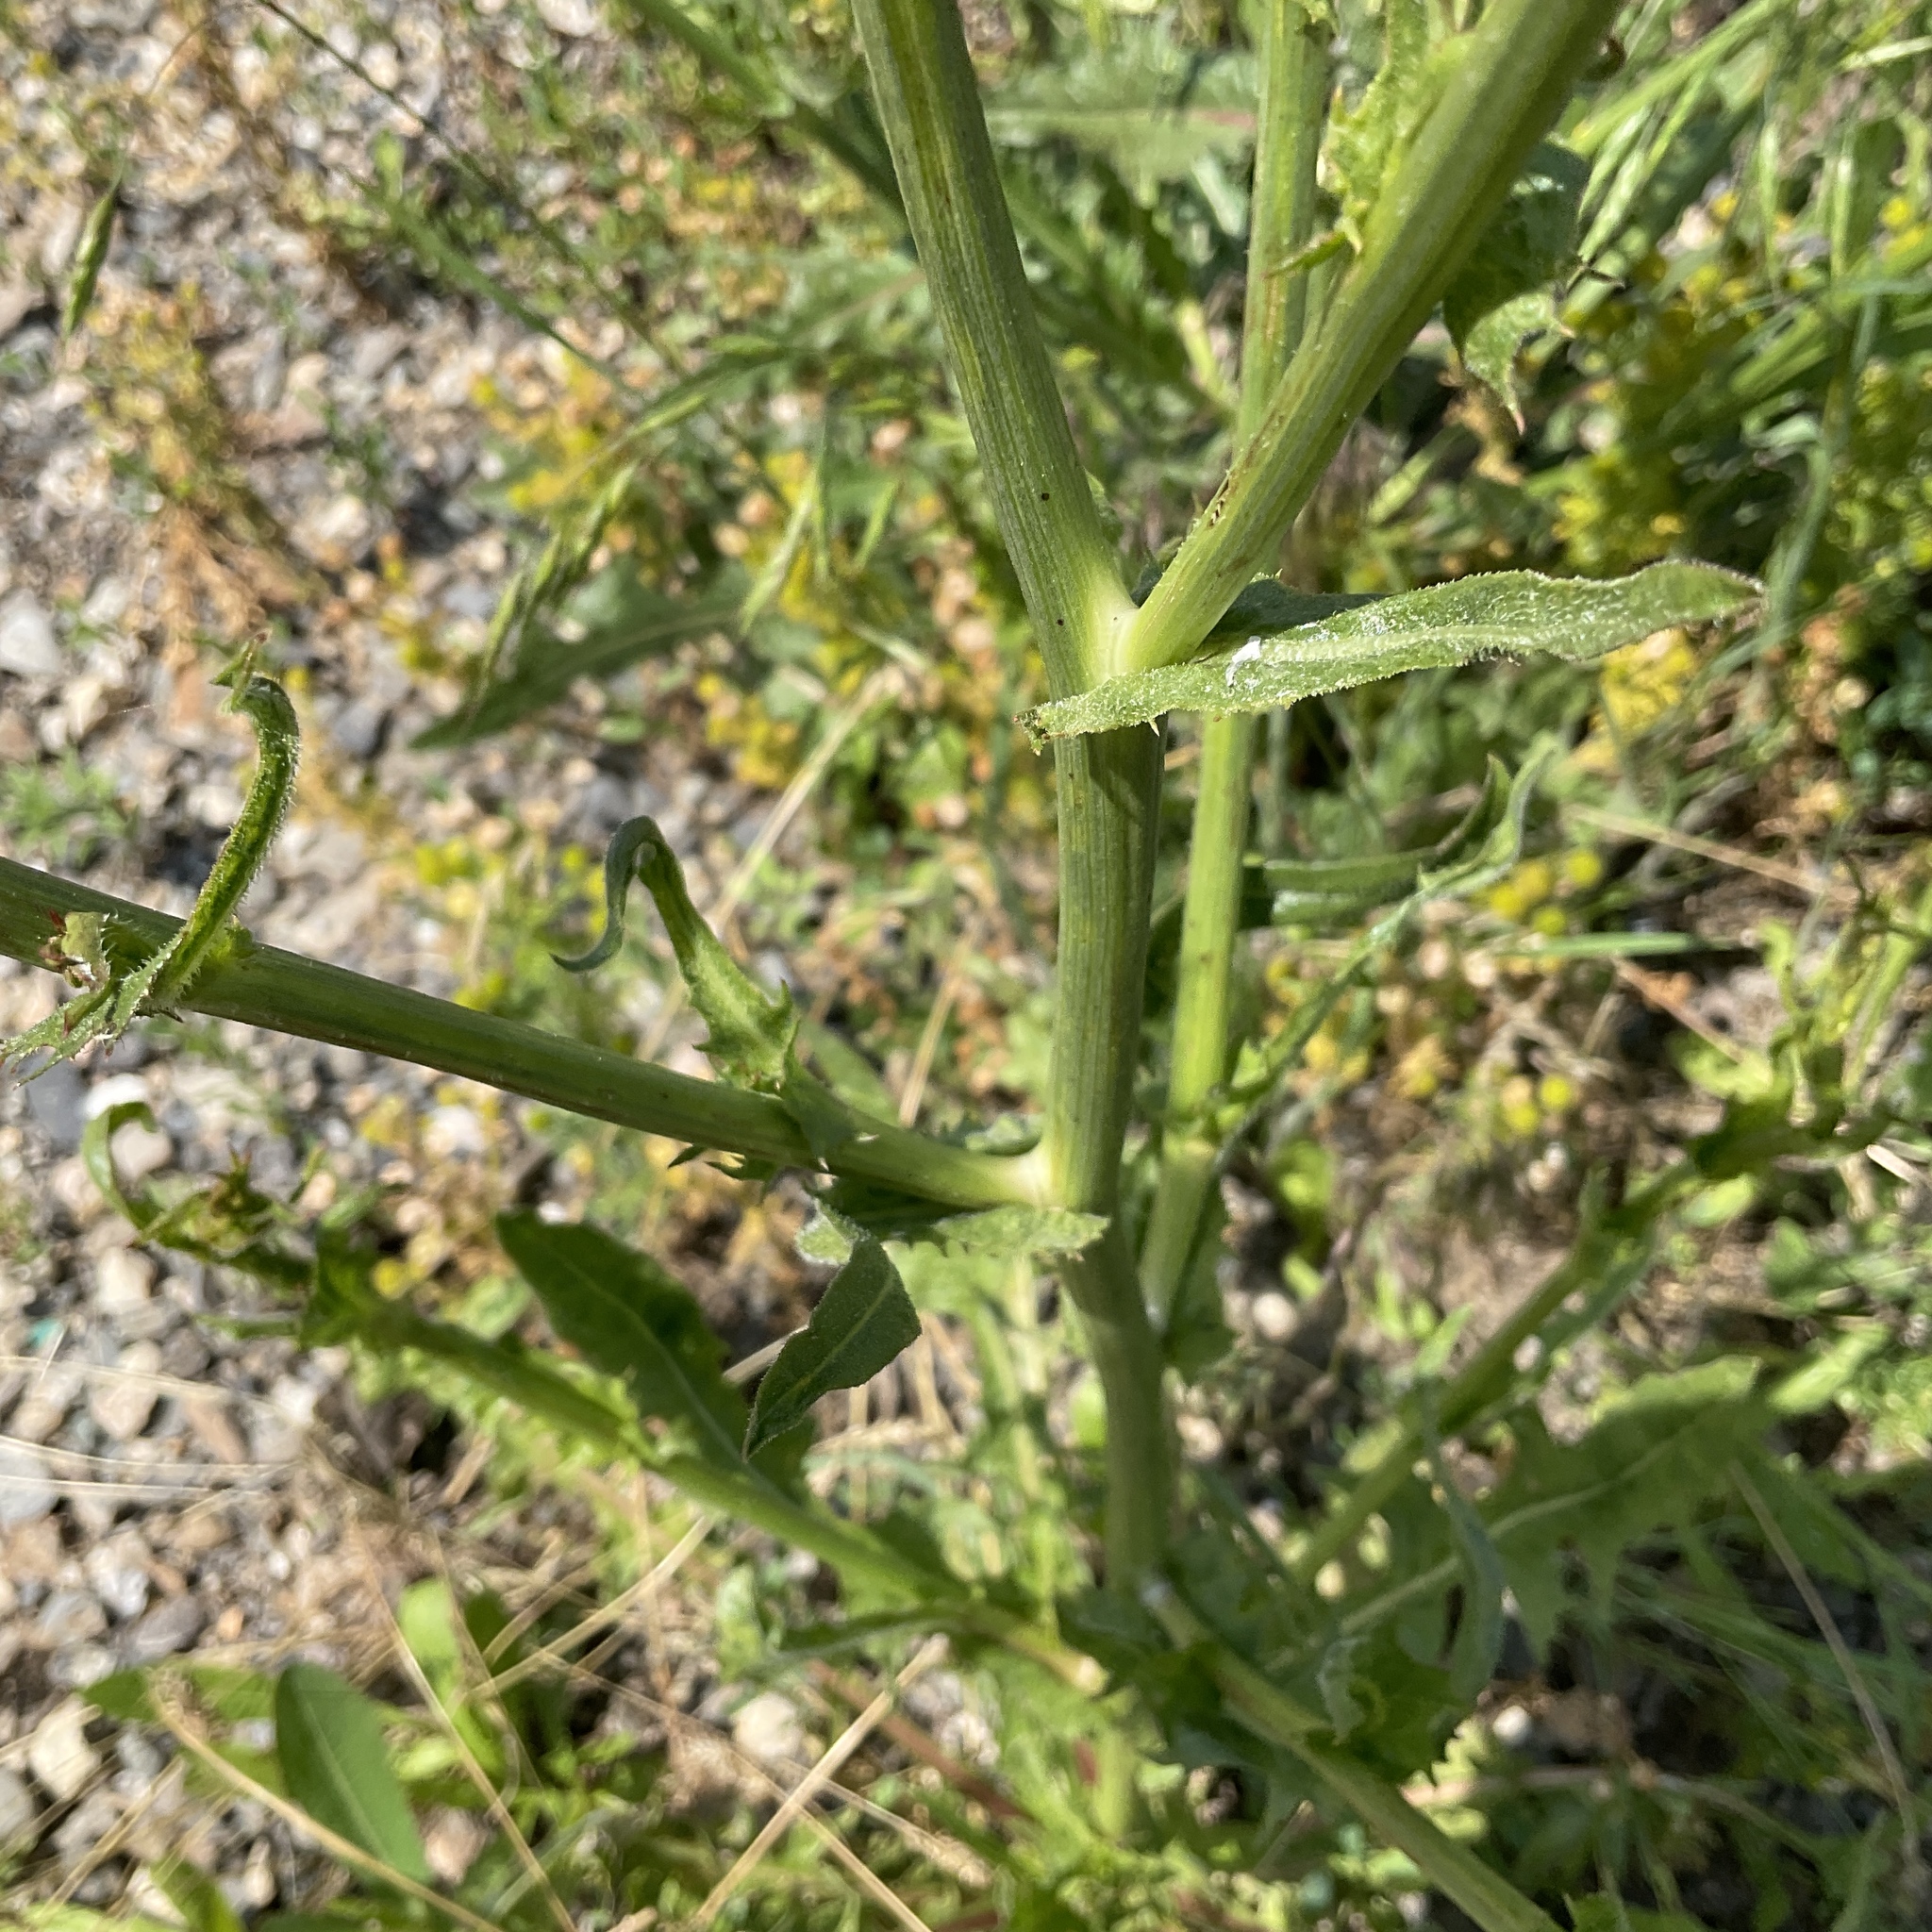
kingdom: Plantae
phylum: Tracheophyta
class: Magnoliopsida
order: Asterales
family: Asteraceae
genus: Cichorium
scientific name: Cichorium intybus
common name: Chicory
